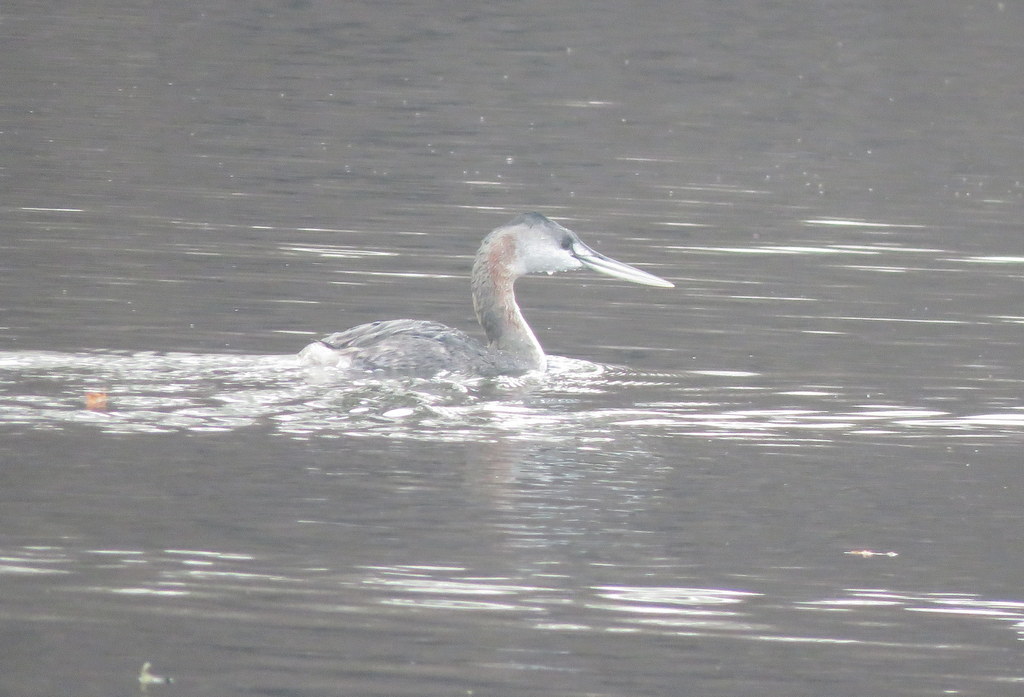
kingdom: Animalia
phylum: Chordata
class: Aves
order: Podicipediformes
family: Podicipedidae
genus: Podiceps
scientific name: Podiceps major
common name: Great grebe
